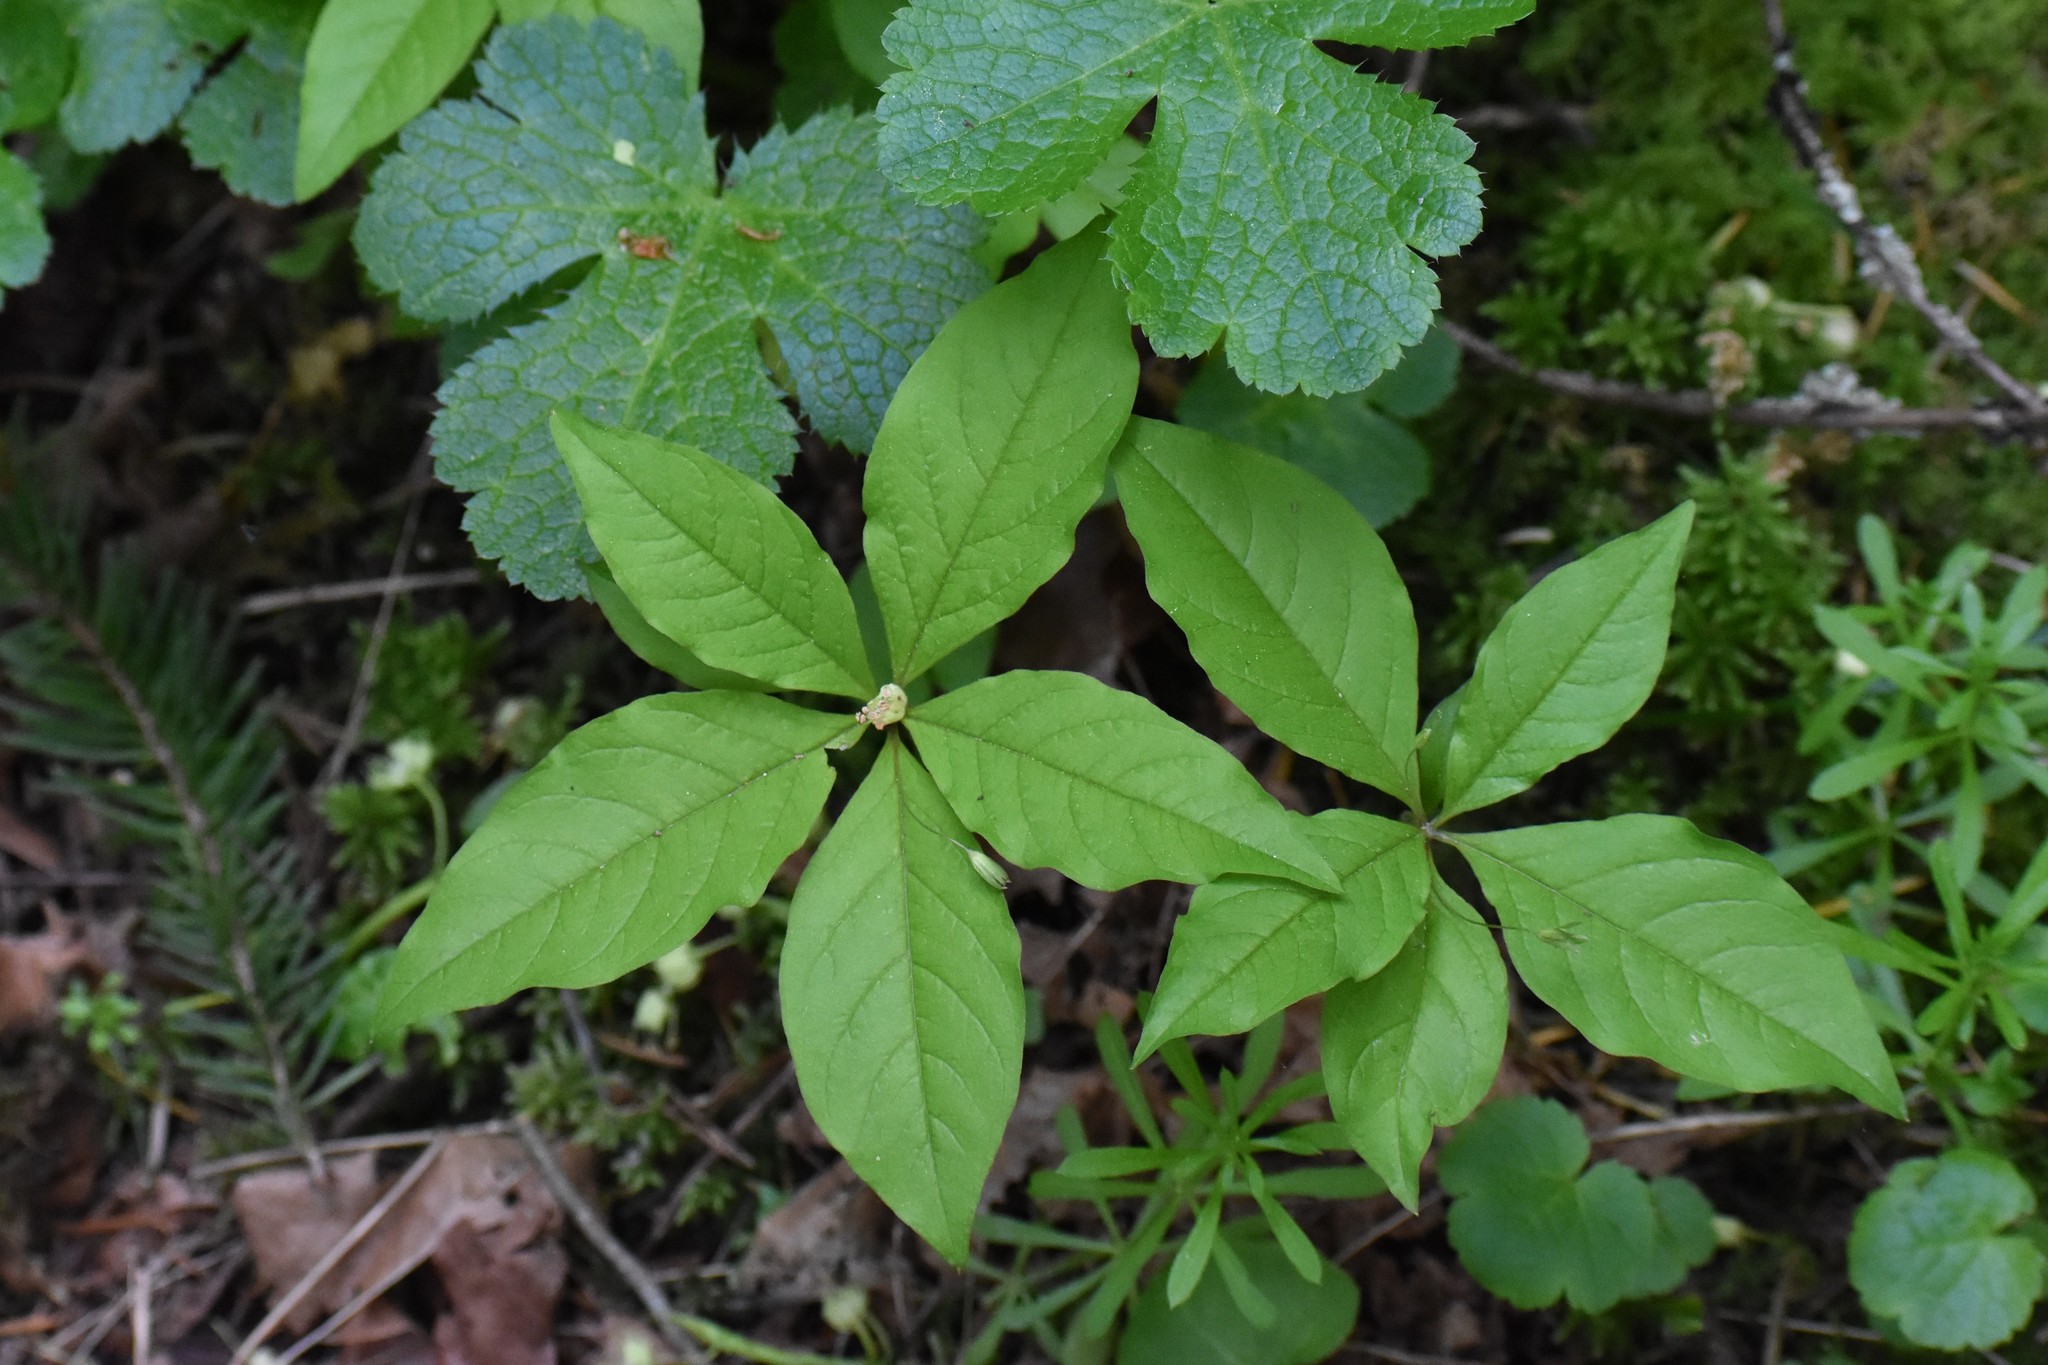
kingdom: Plantae
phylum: Tracheophyta
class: Magnoliopsida
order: Ericales
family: Primulaceae
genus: Lysimachia
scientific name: Lysimachia latifolia
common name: Pacific starflower
